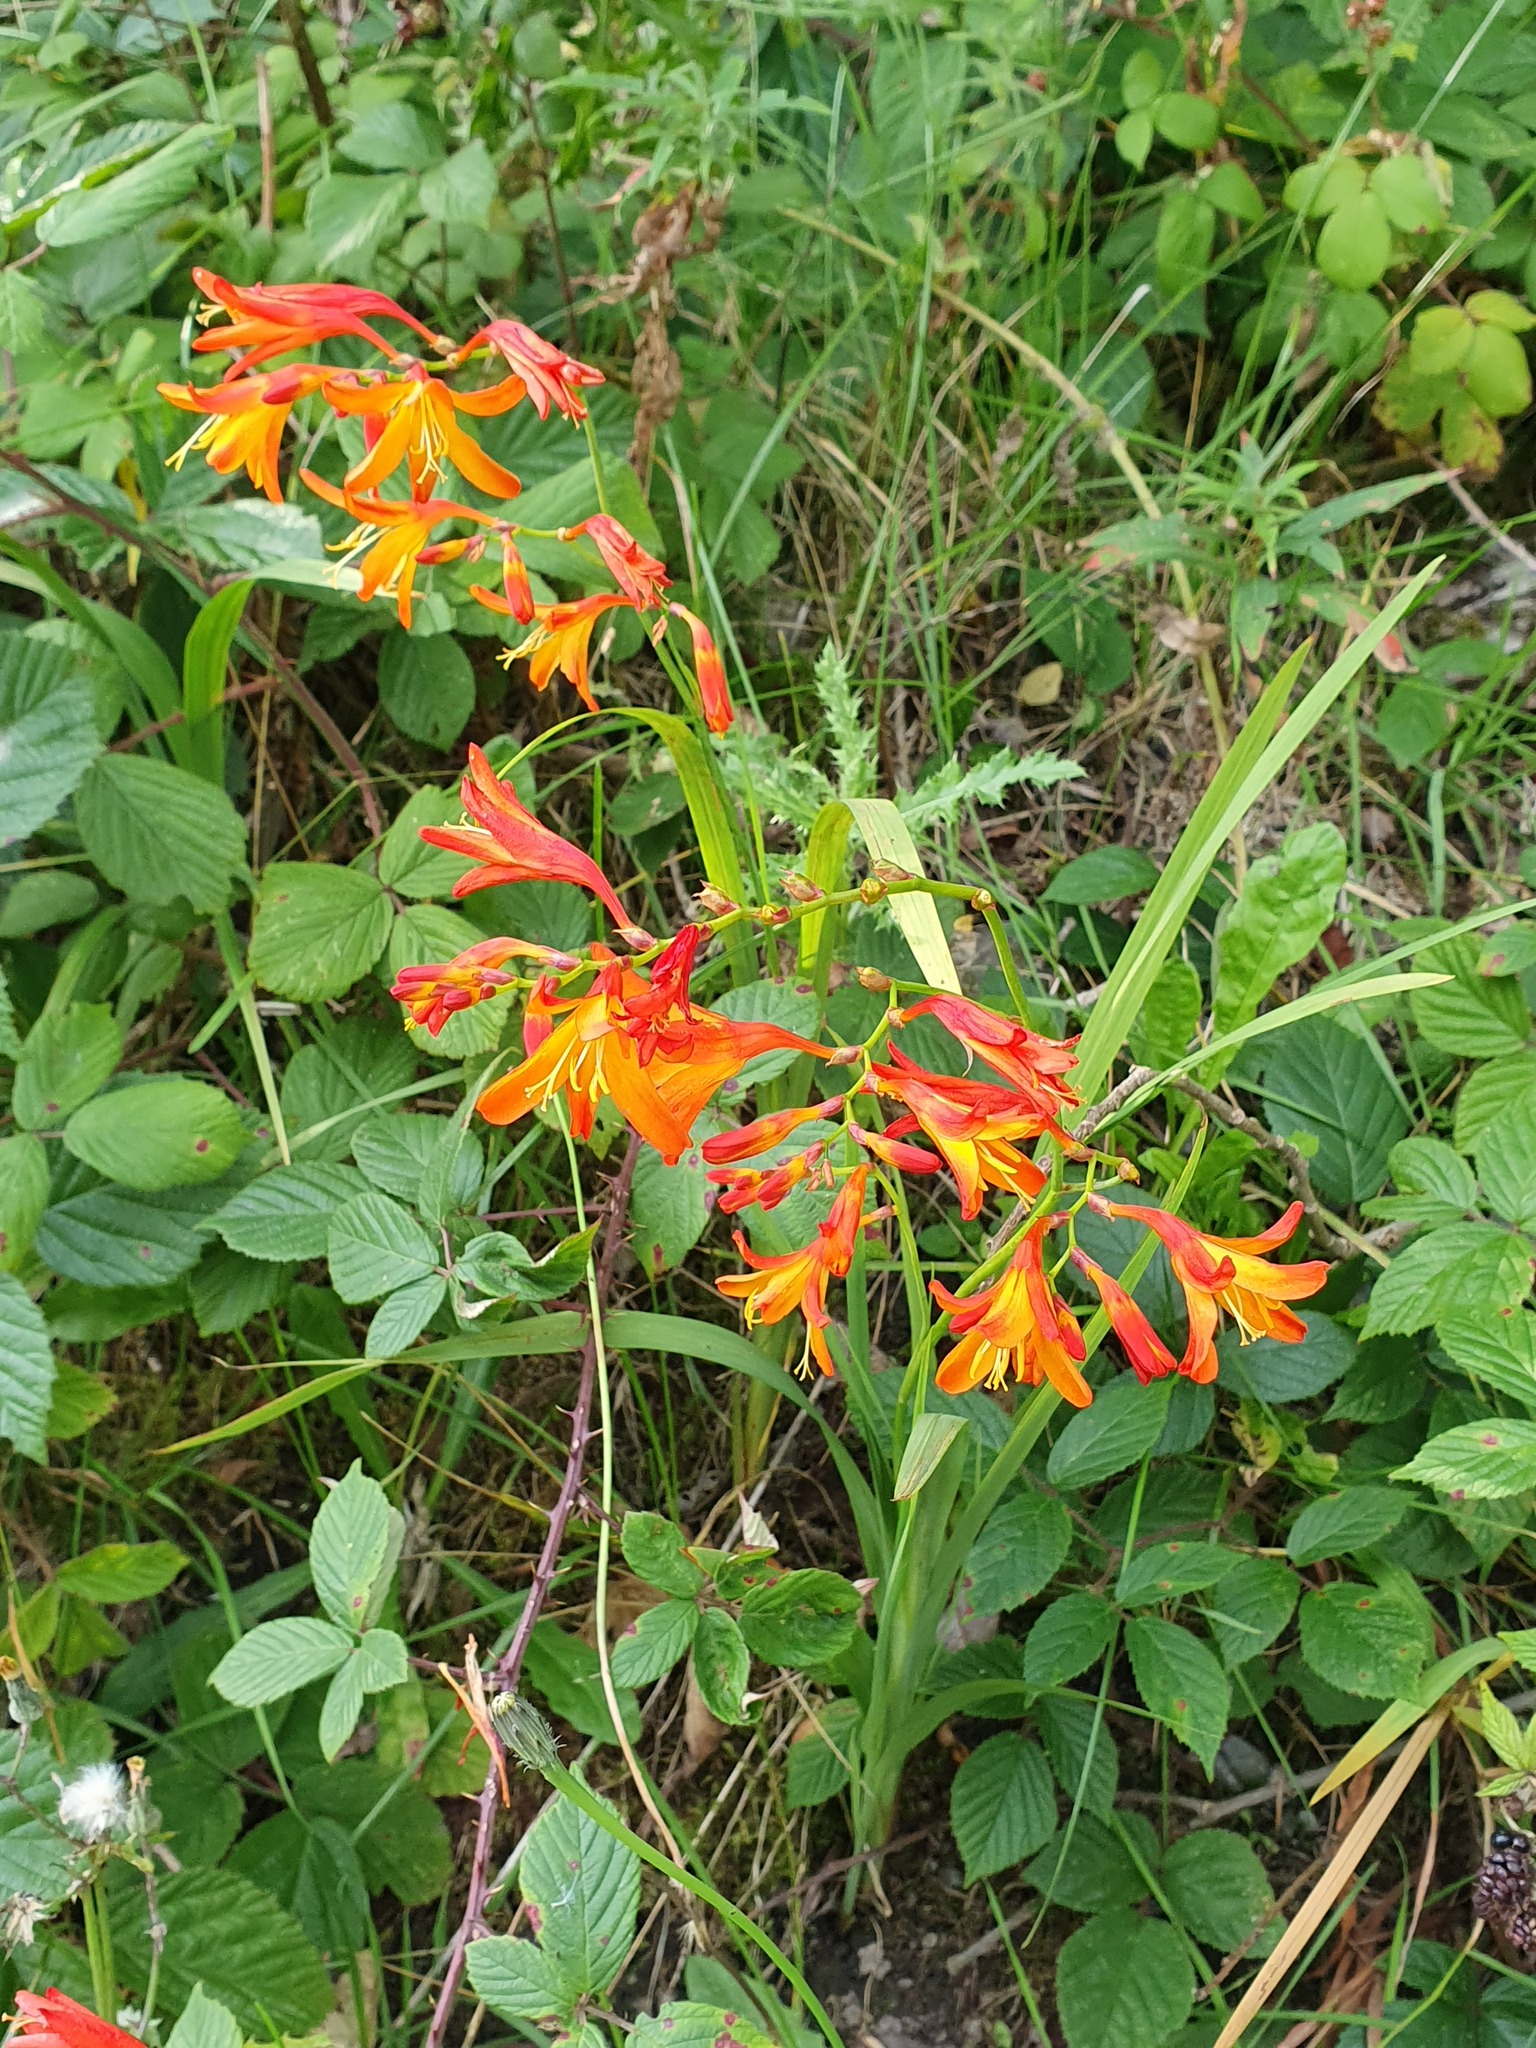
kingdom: Plantae
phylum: Tracheophyta
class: Liliopsida
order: Asparagales
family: Iridaceae
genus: Crocosmia
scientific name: Crocosmia crocosmiiflora
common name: Montbretia
